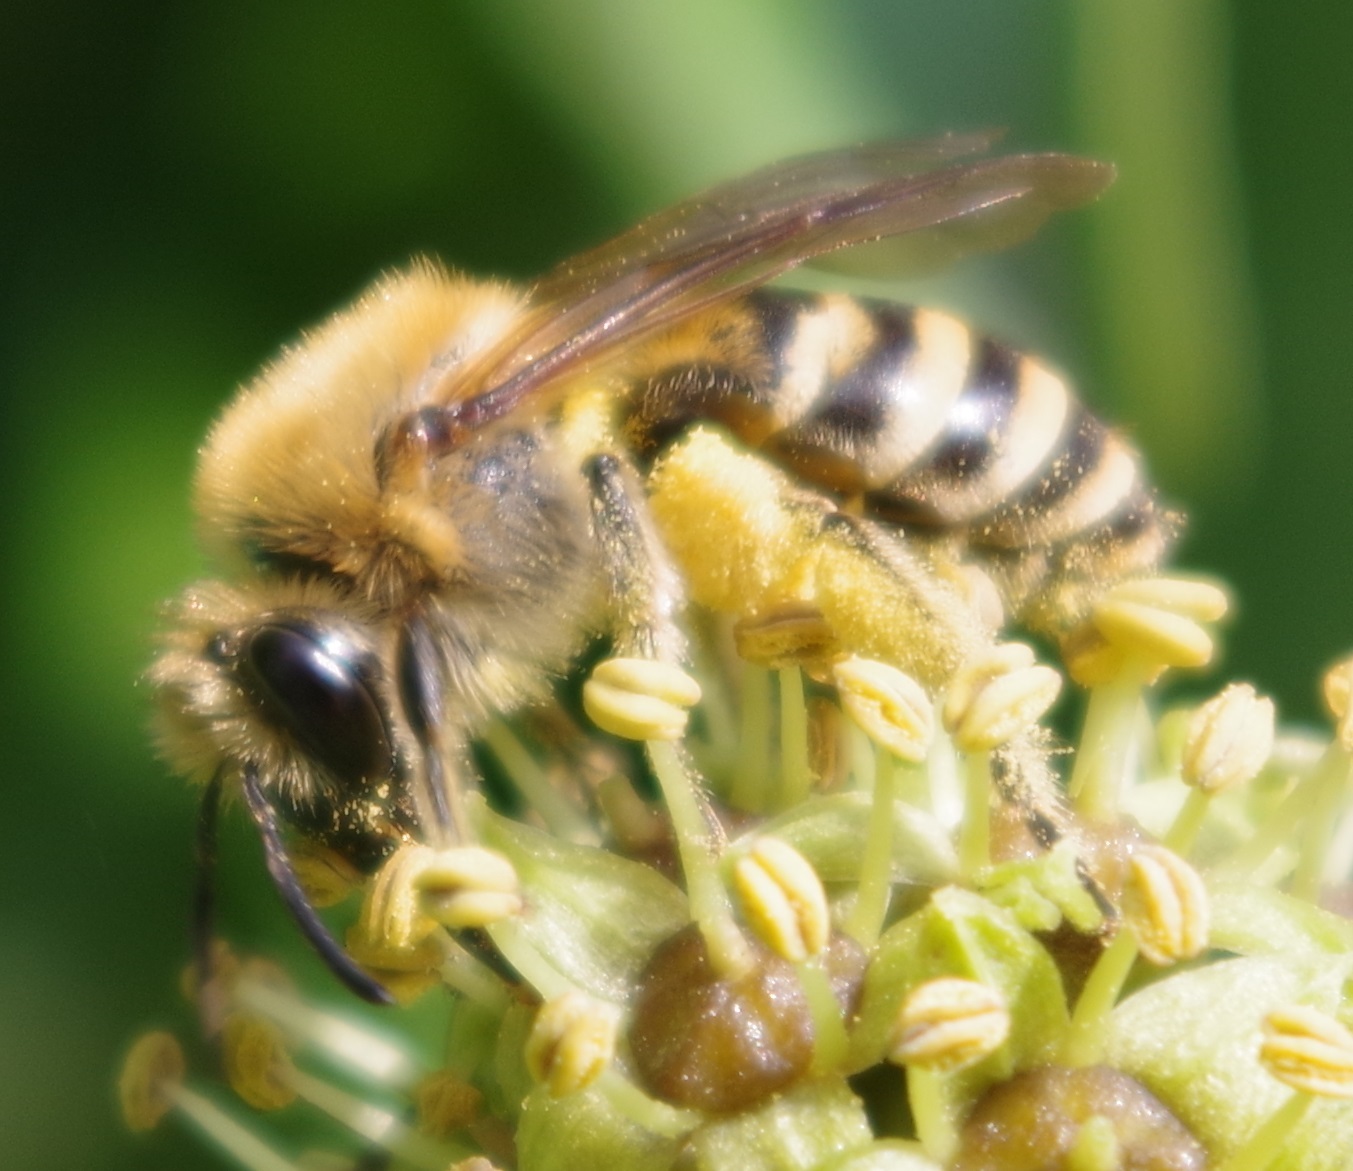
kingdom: Animalia
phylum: Arthropoda
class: Insecta
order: Hymenoptera
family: Colletidae
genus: Colletes
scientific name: Colletes hederae
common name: Ivy bee
